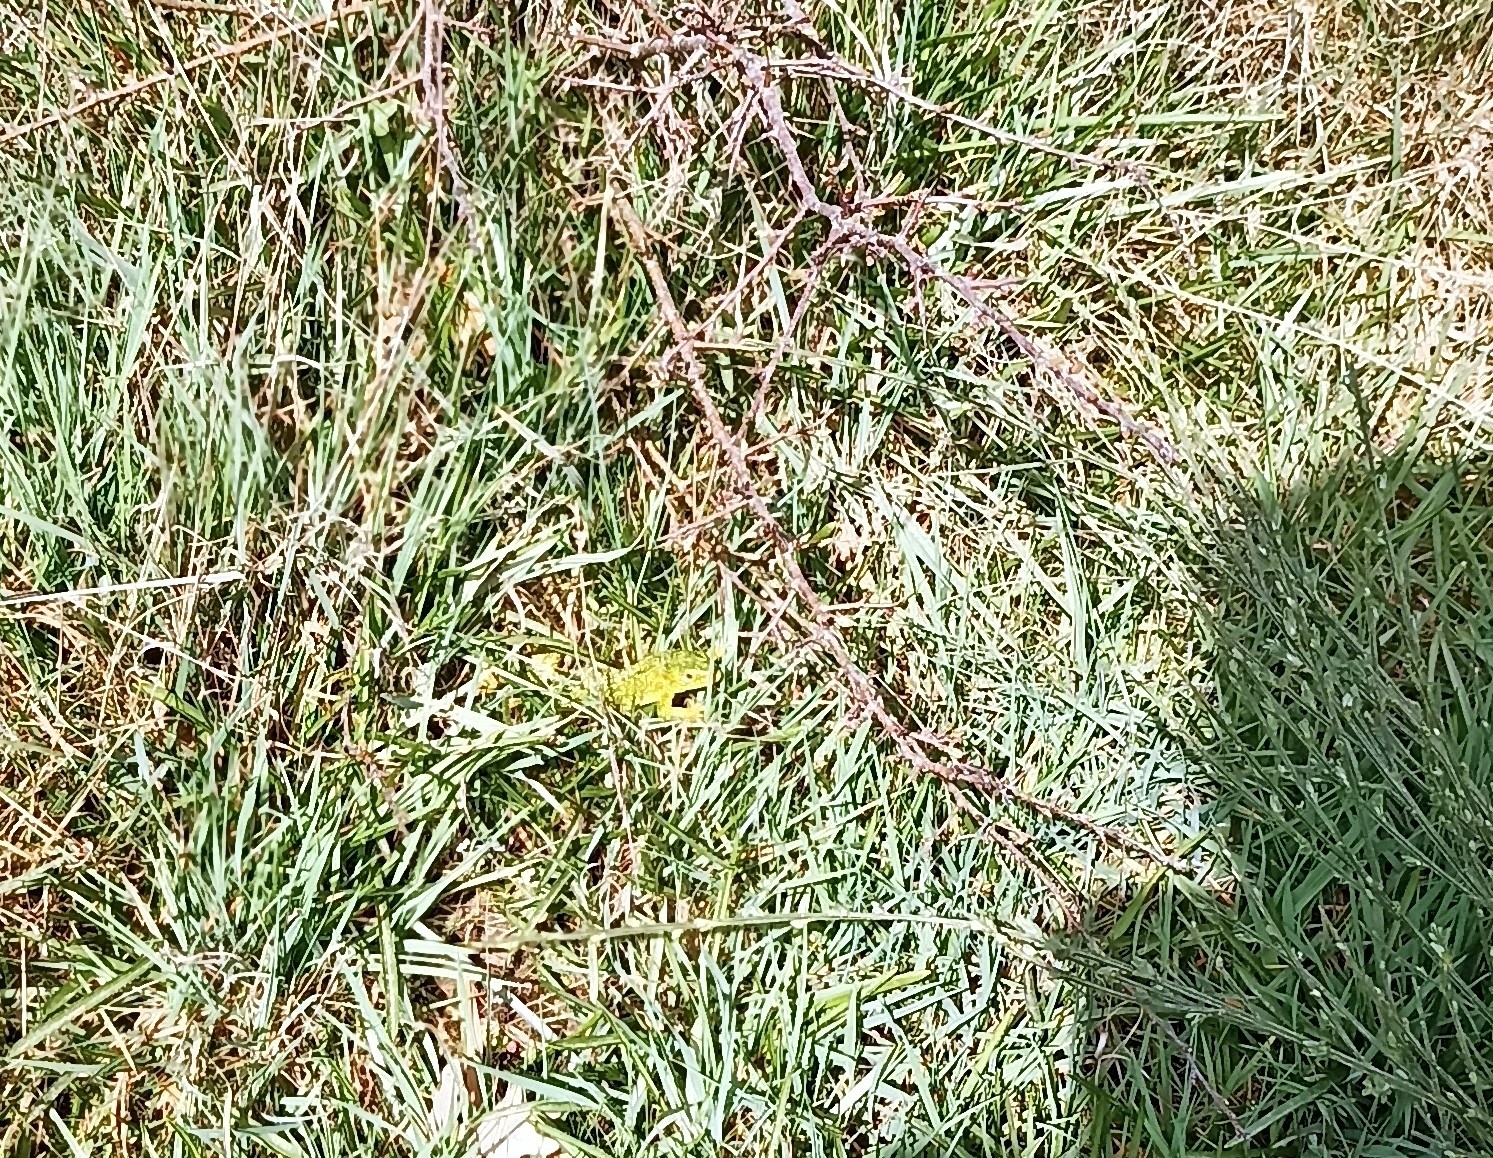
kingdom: Animalia
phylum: Chordata
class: Squamata
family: Lacertidae
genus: Lacerta
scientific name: Lacerta bilineata
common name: Western green lizard
